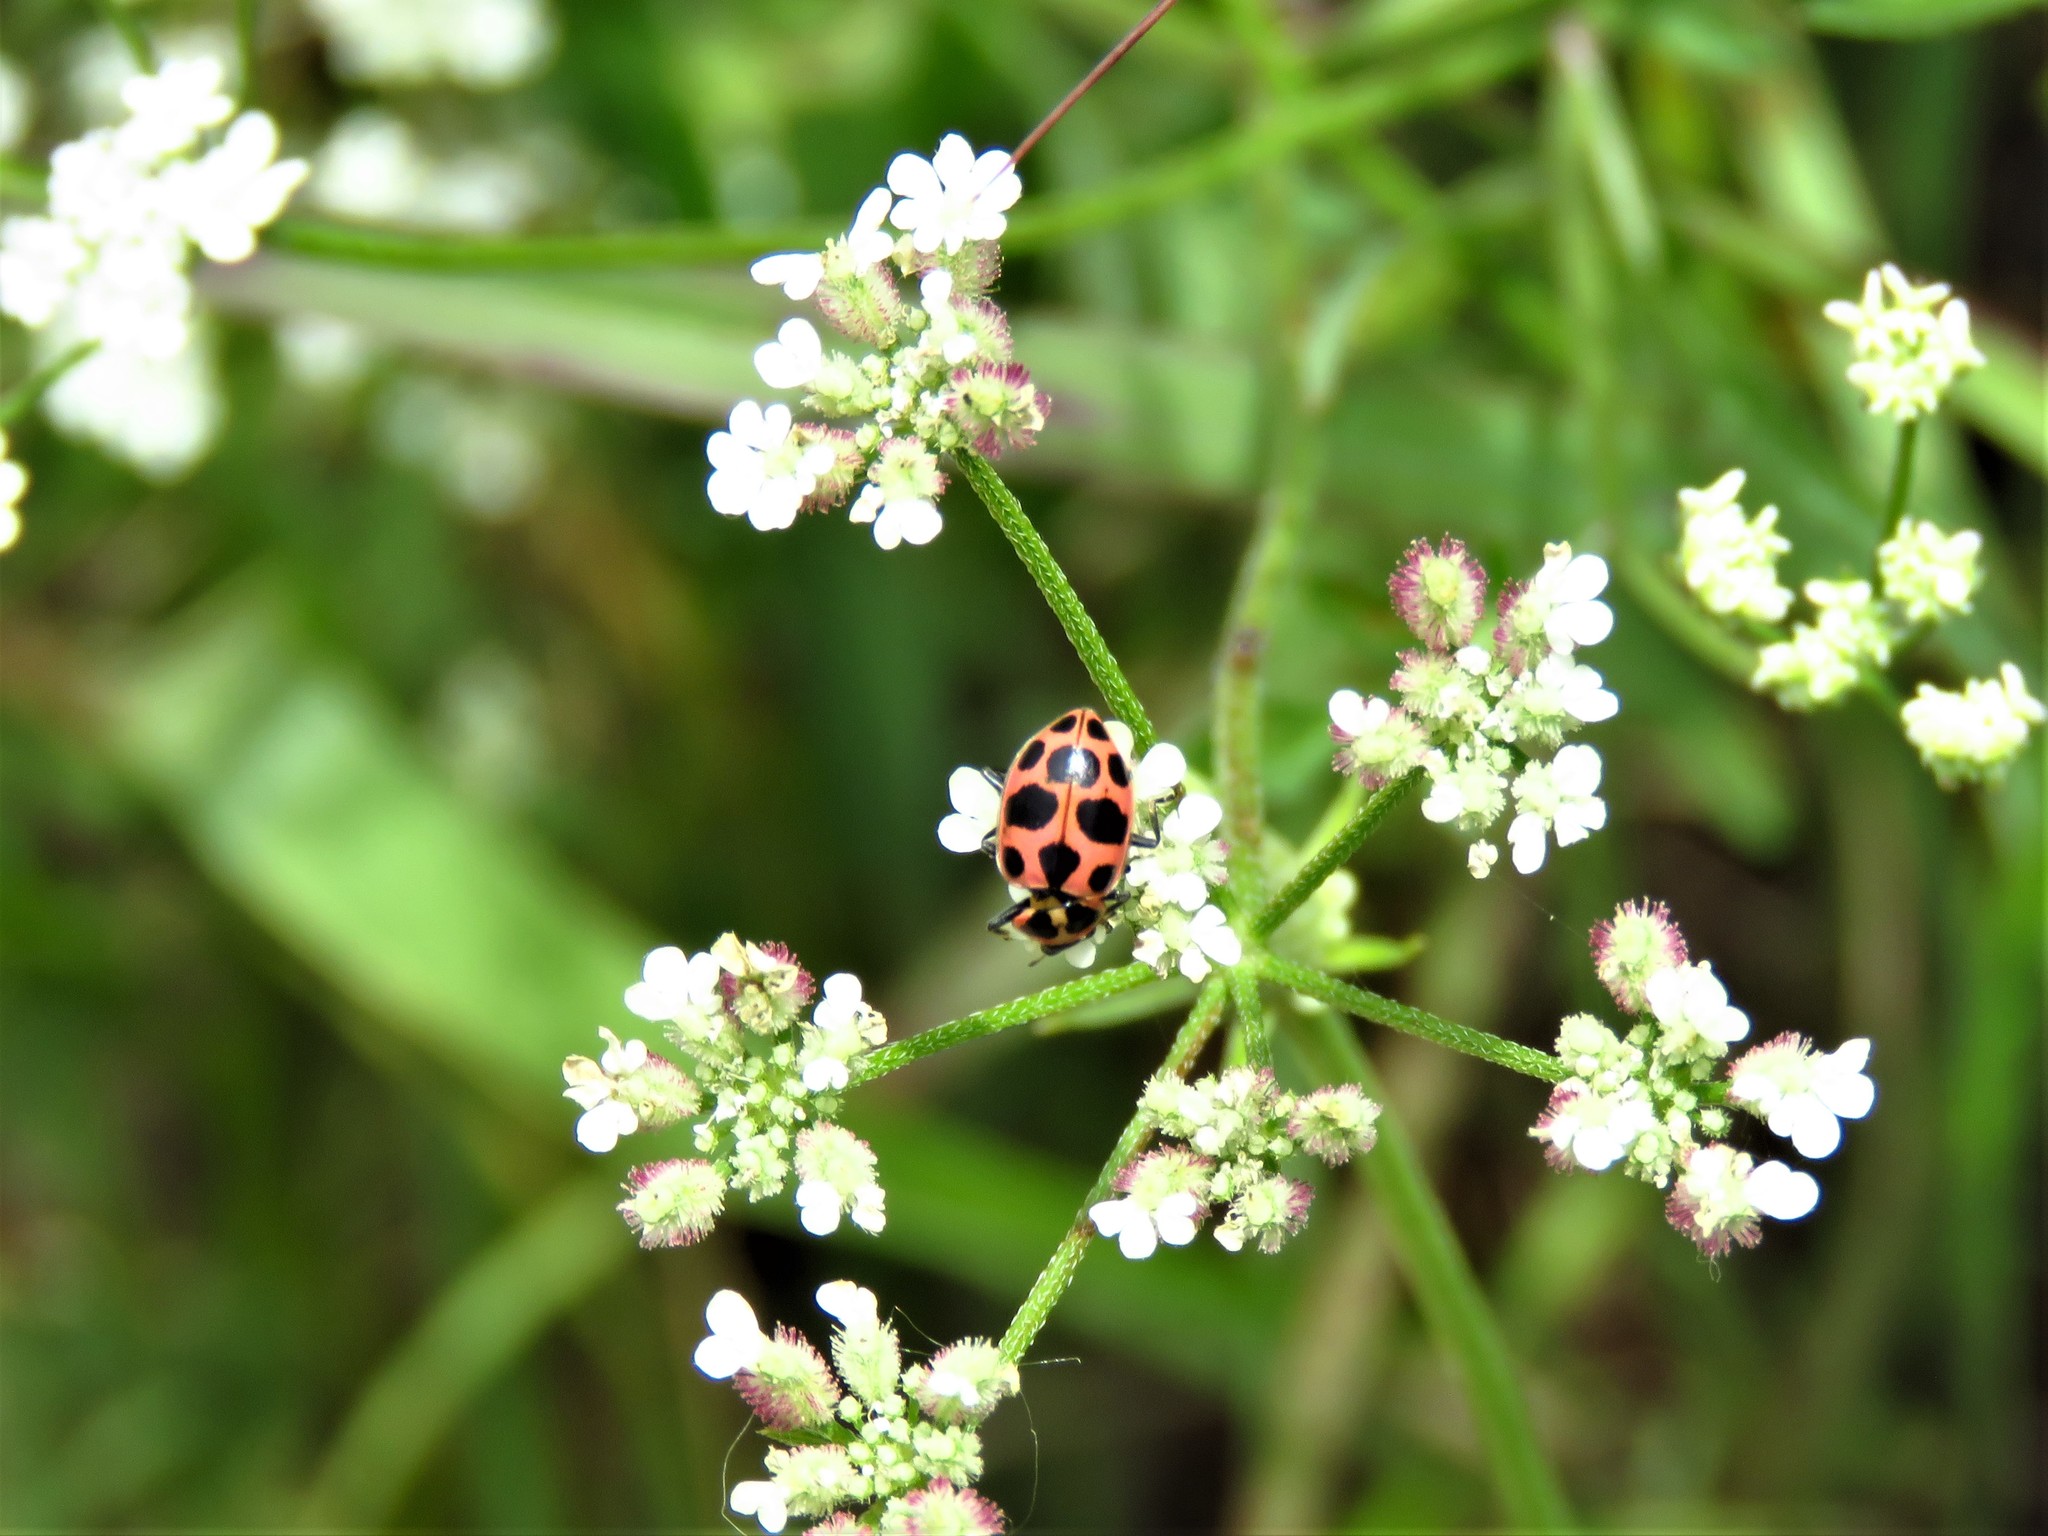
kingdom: Animalia
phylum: Arthropoda
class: Insecta
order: Coleoptera
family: Coccinellidae
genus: Coleomegilla
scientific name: Coleomegilla maculata
